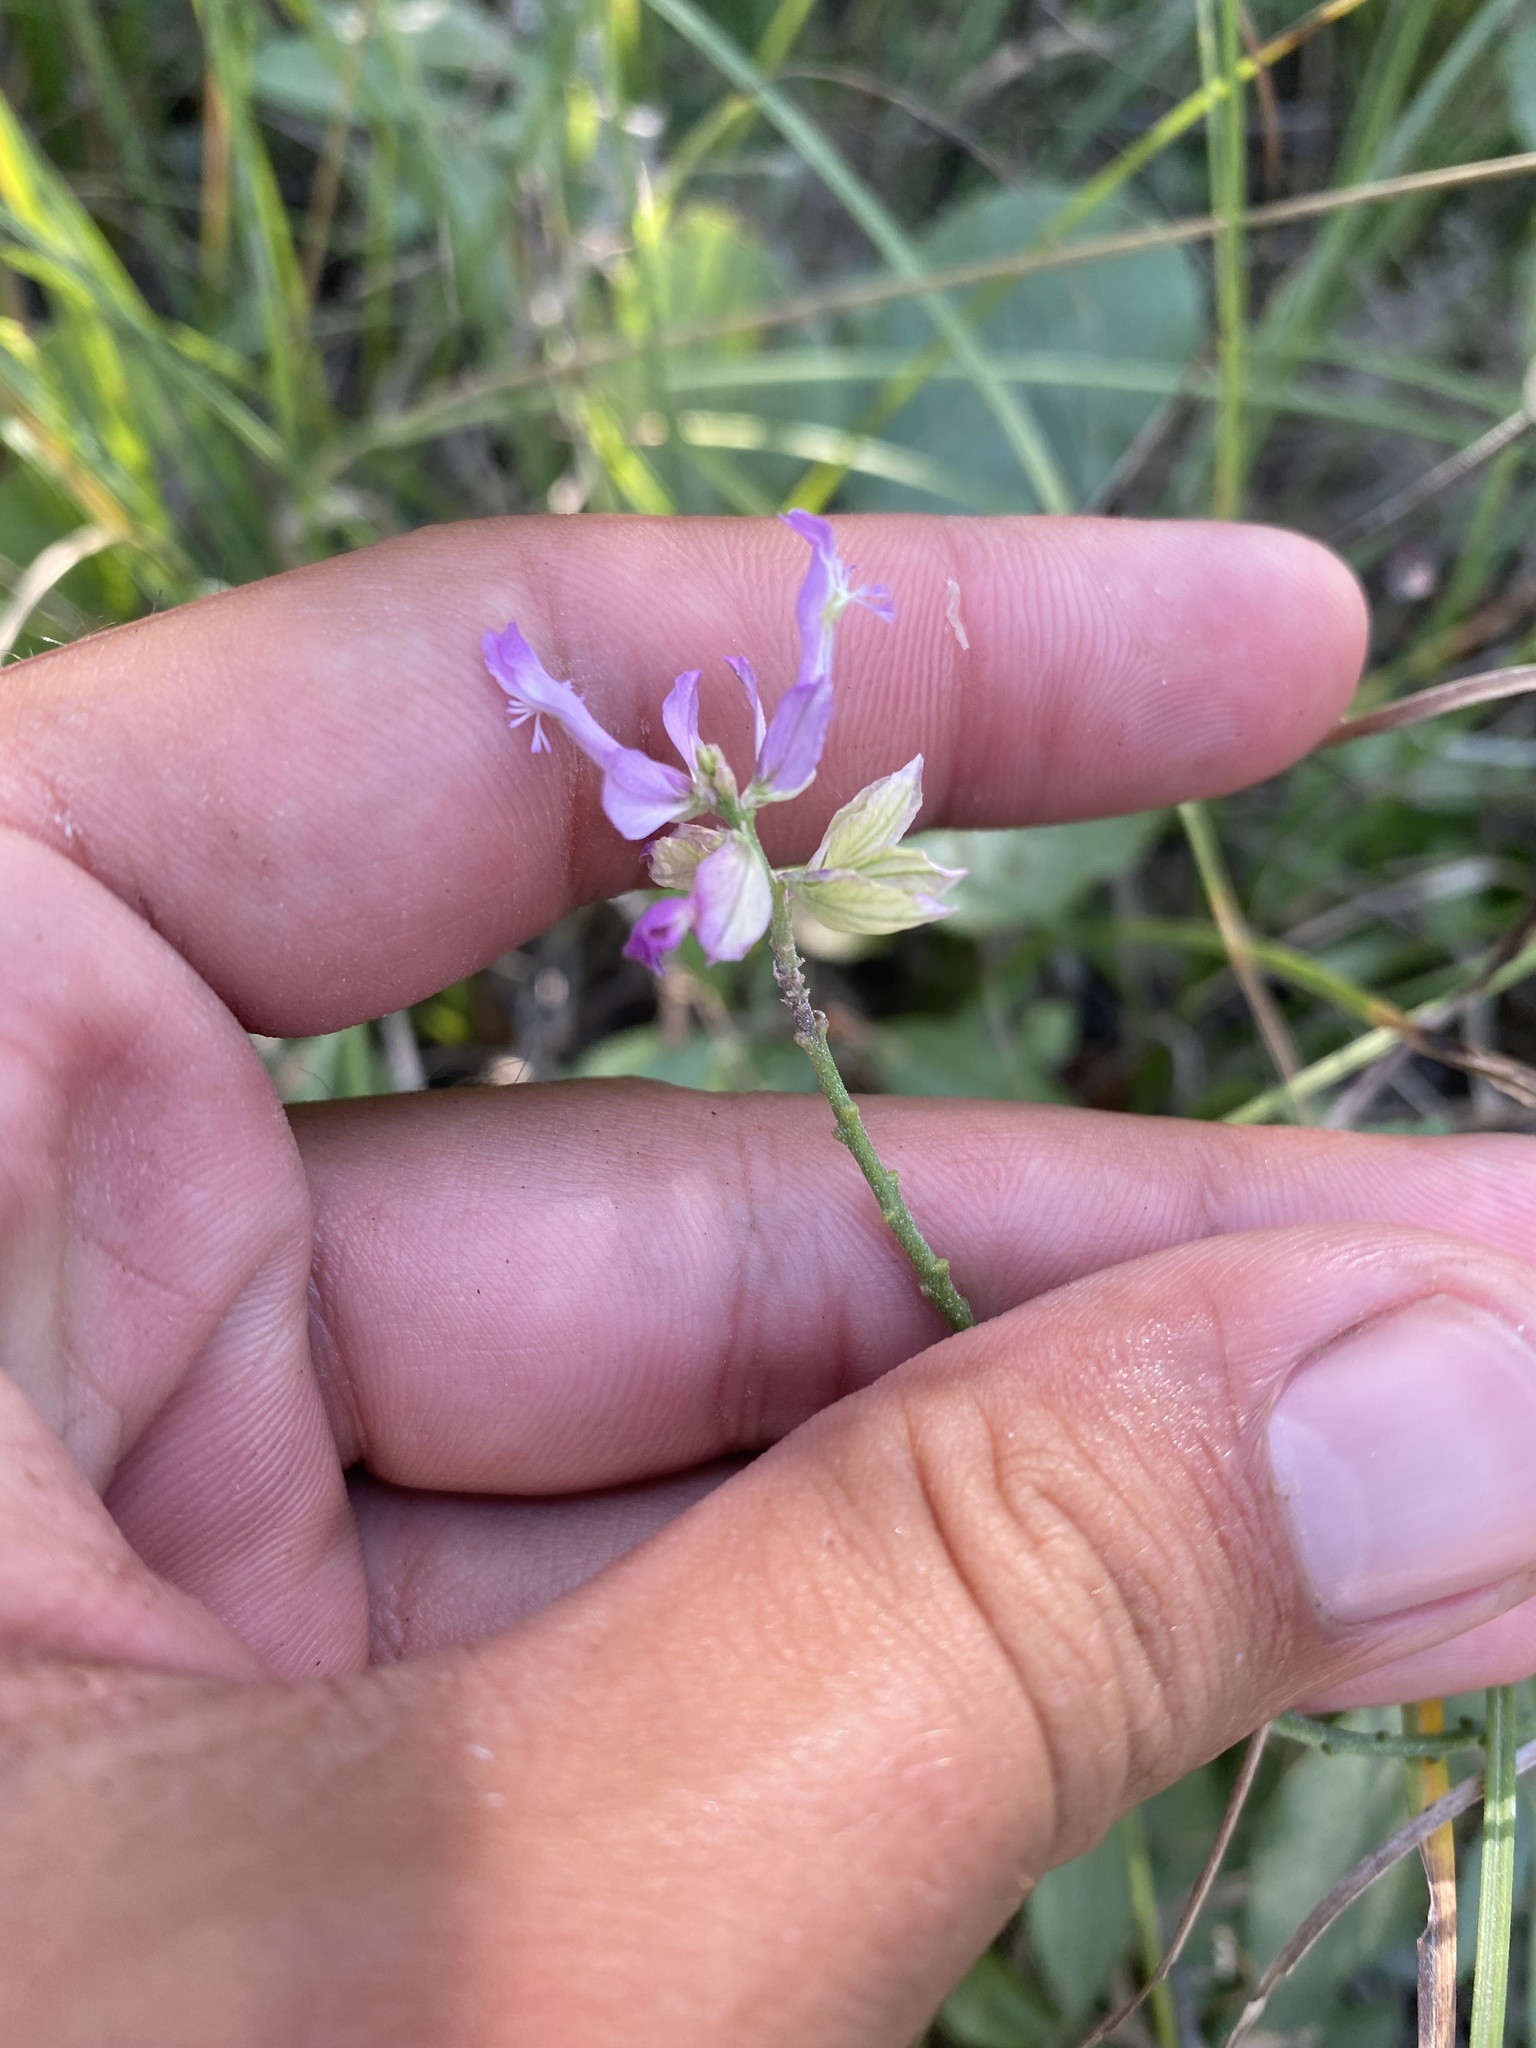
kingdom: Plantae
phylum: Tracheophyta
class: Magnoliopsida
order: Fabales
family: Polygalaceae
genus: Polygala
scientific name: Polygala major
